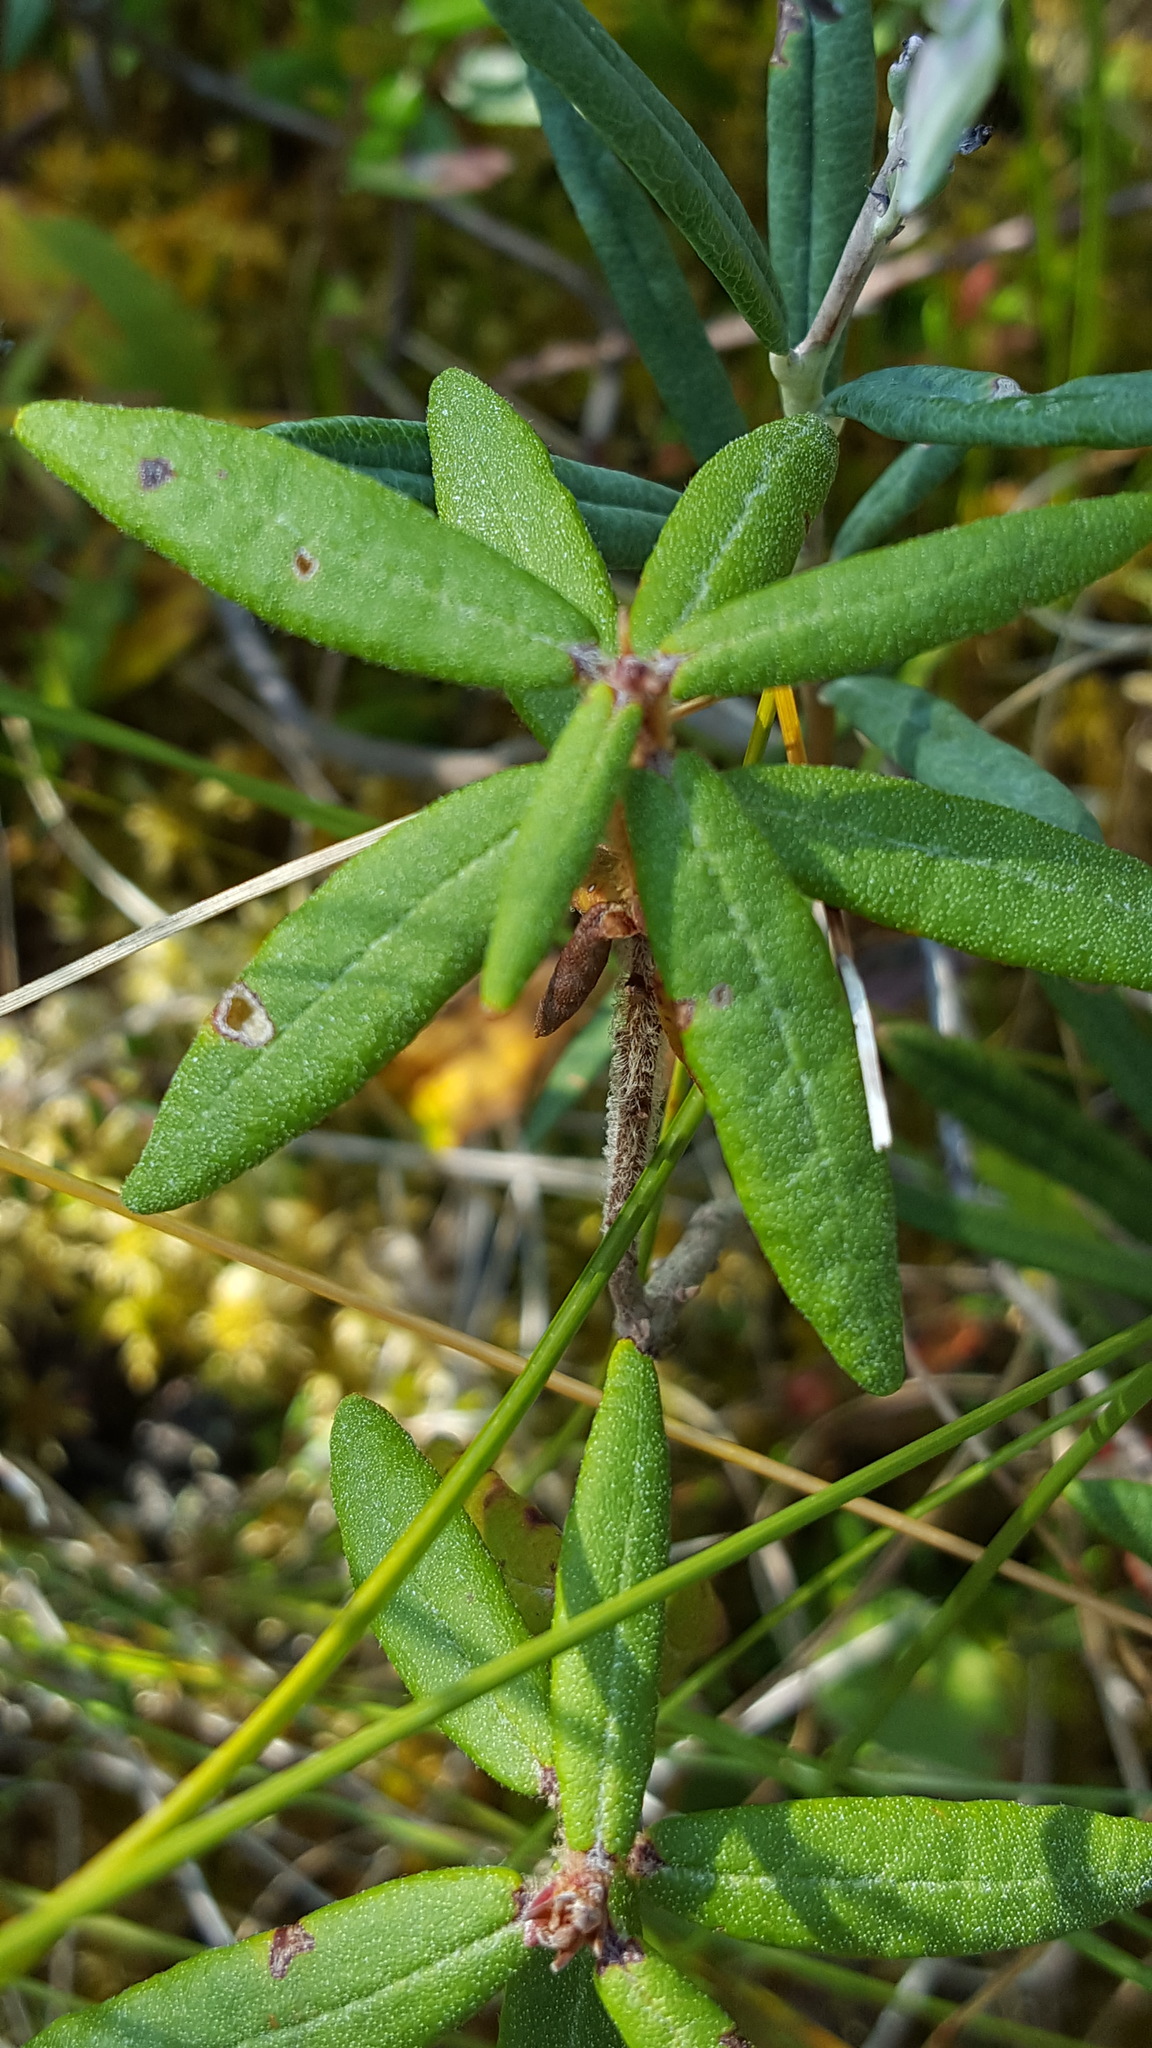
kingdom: Plantae
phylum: Tracheophyta
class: Magnoliopsida
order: Ericales
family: Ericaceae
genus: Rhododendron
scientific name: Rhododendron groenlandicum
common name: Bog labrador tea
